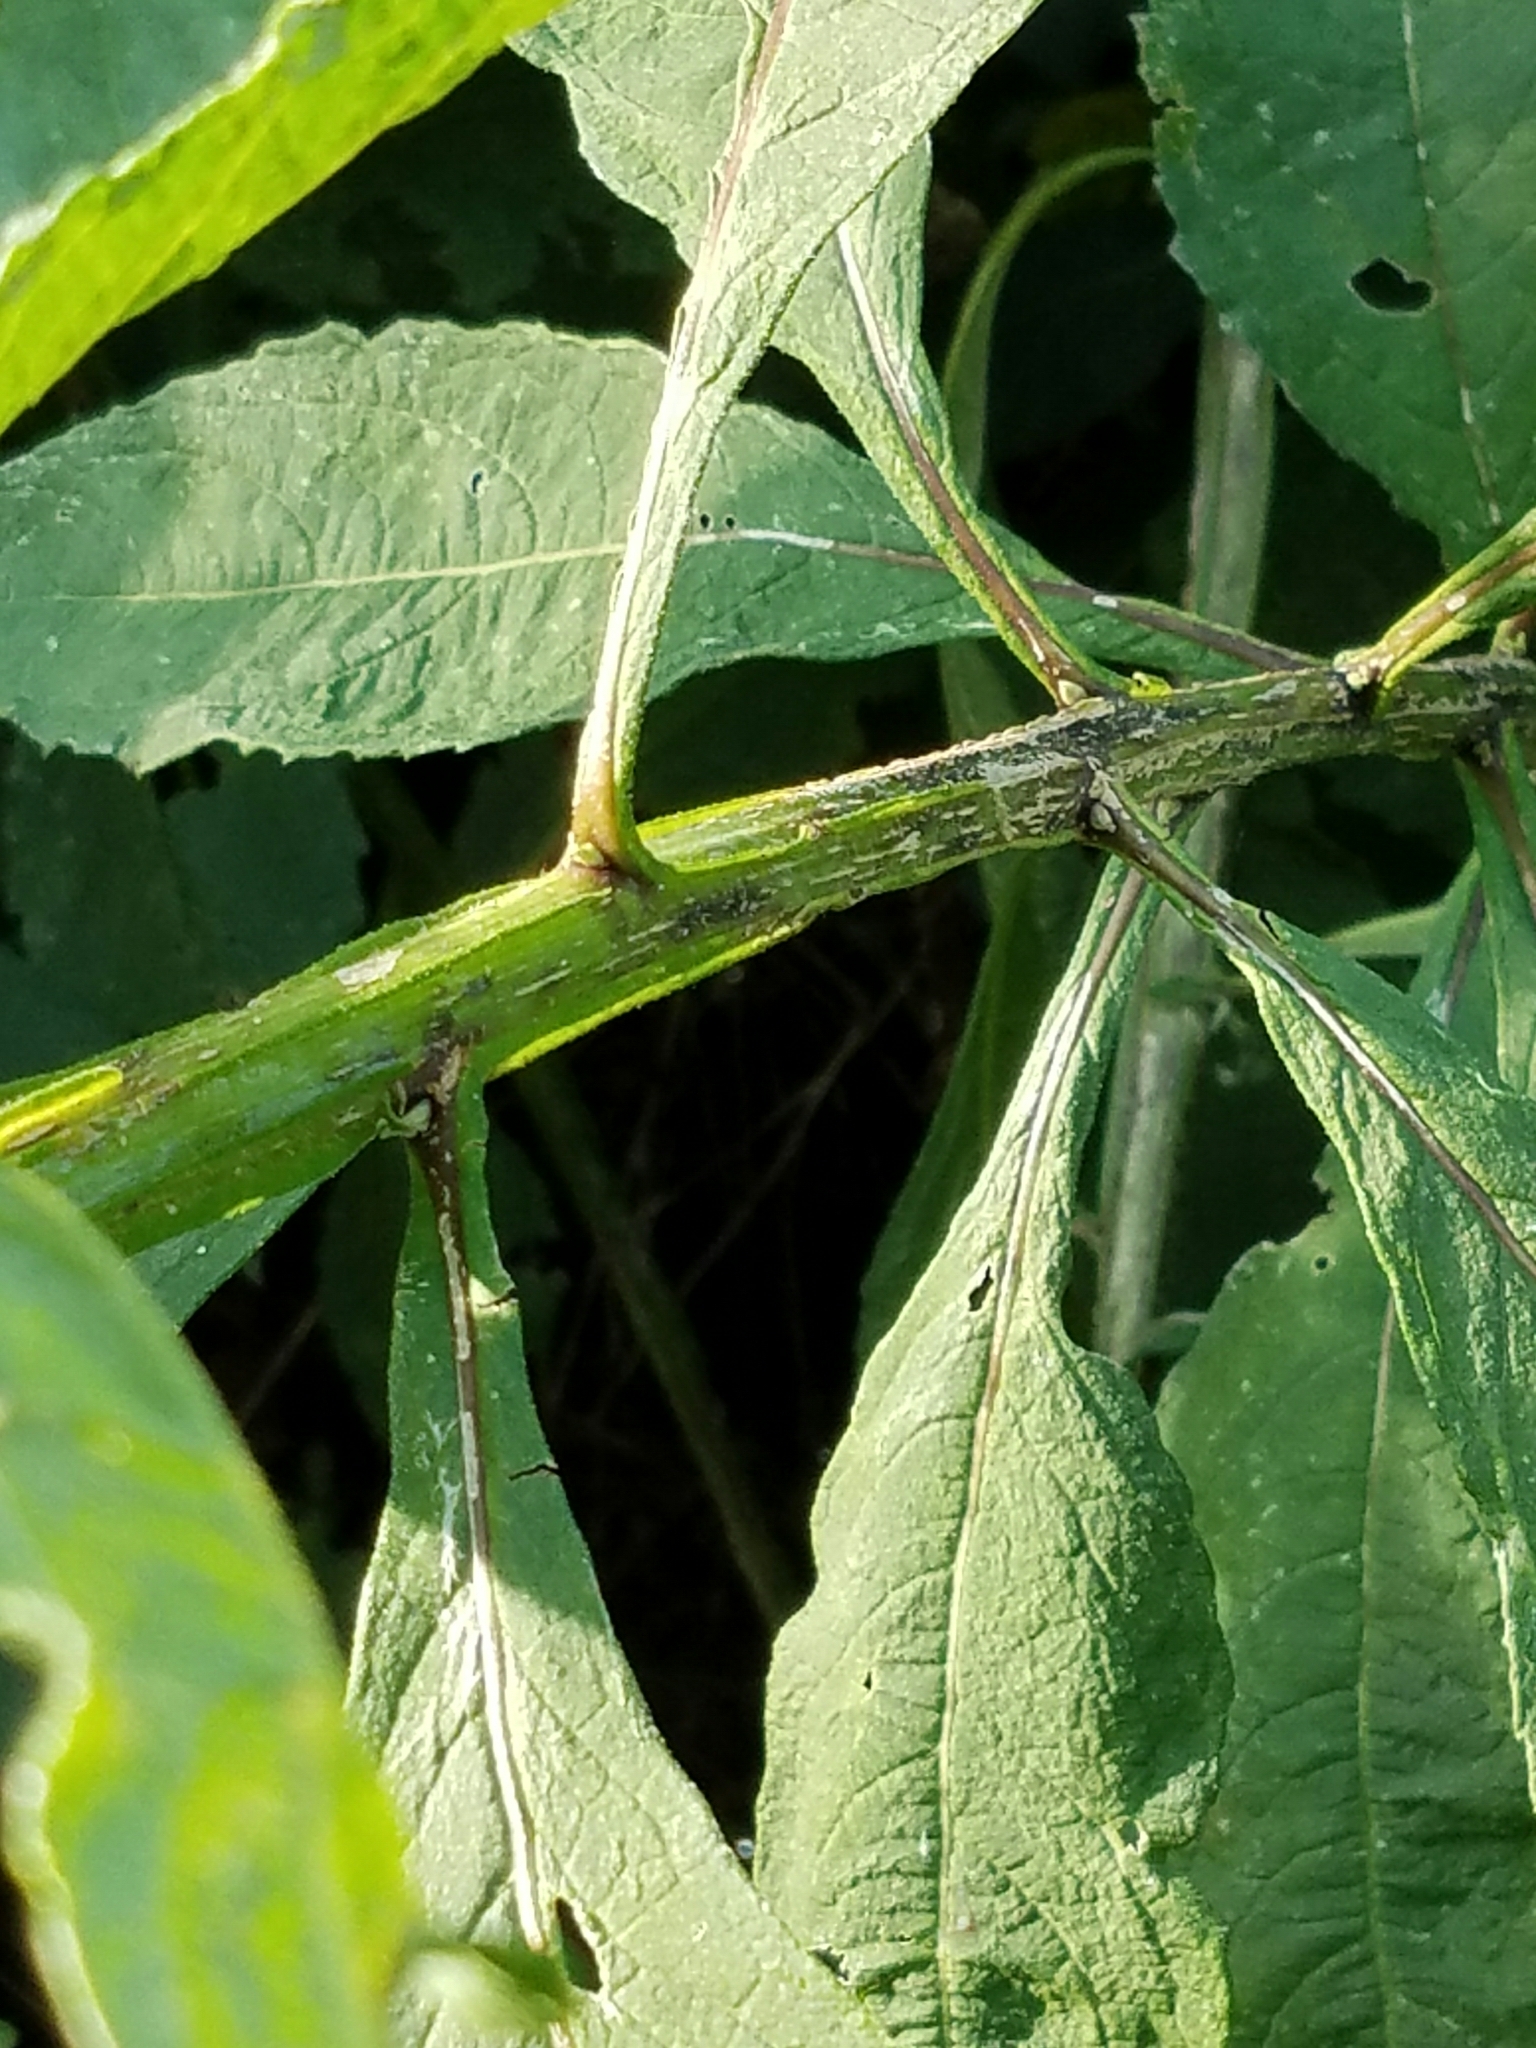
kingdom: Plantae
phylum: Tracheophyta
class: Magnoliopsida
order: Asterales
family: Asteraceae
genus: Verbesina
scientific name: Verbesina alternifolia
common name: Wingstem
